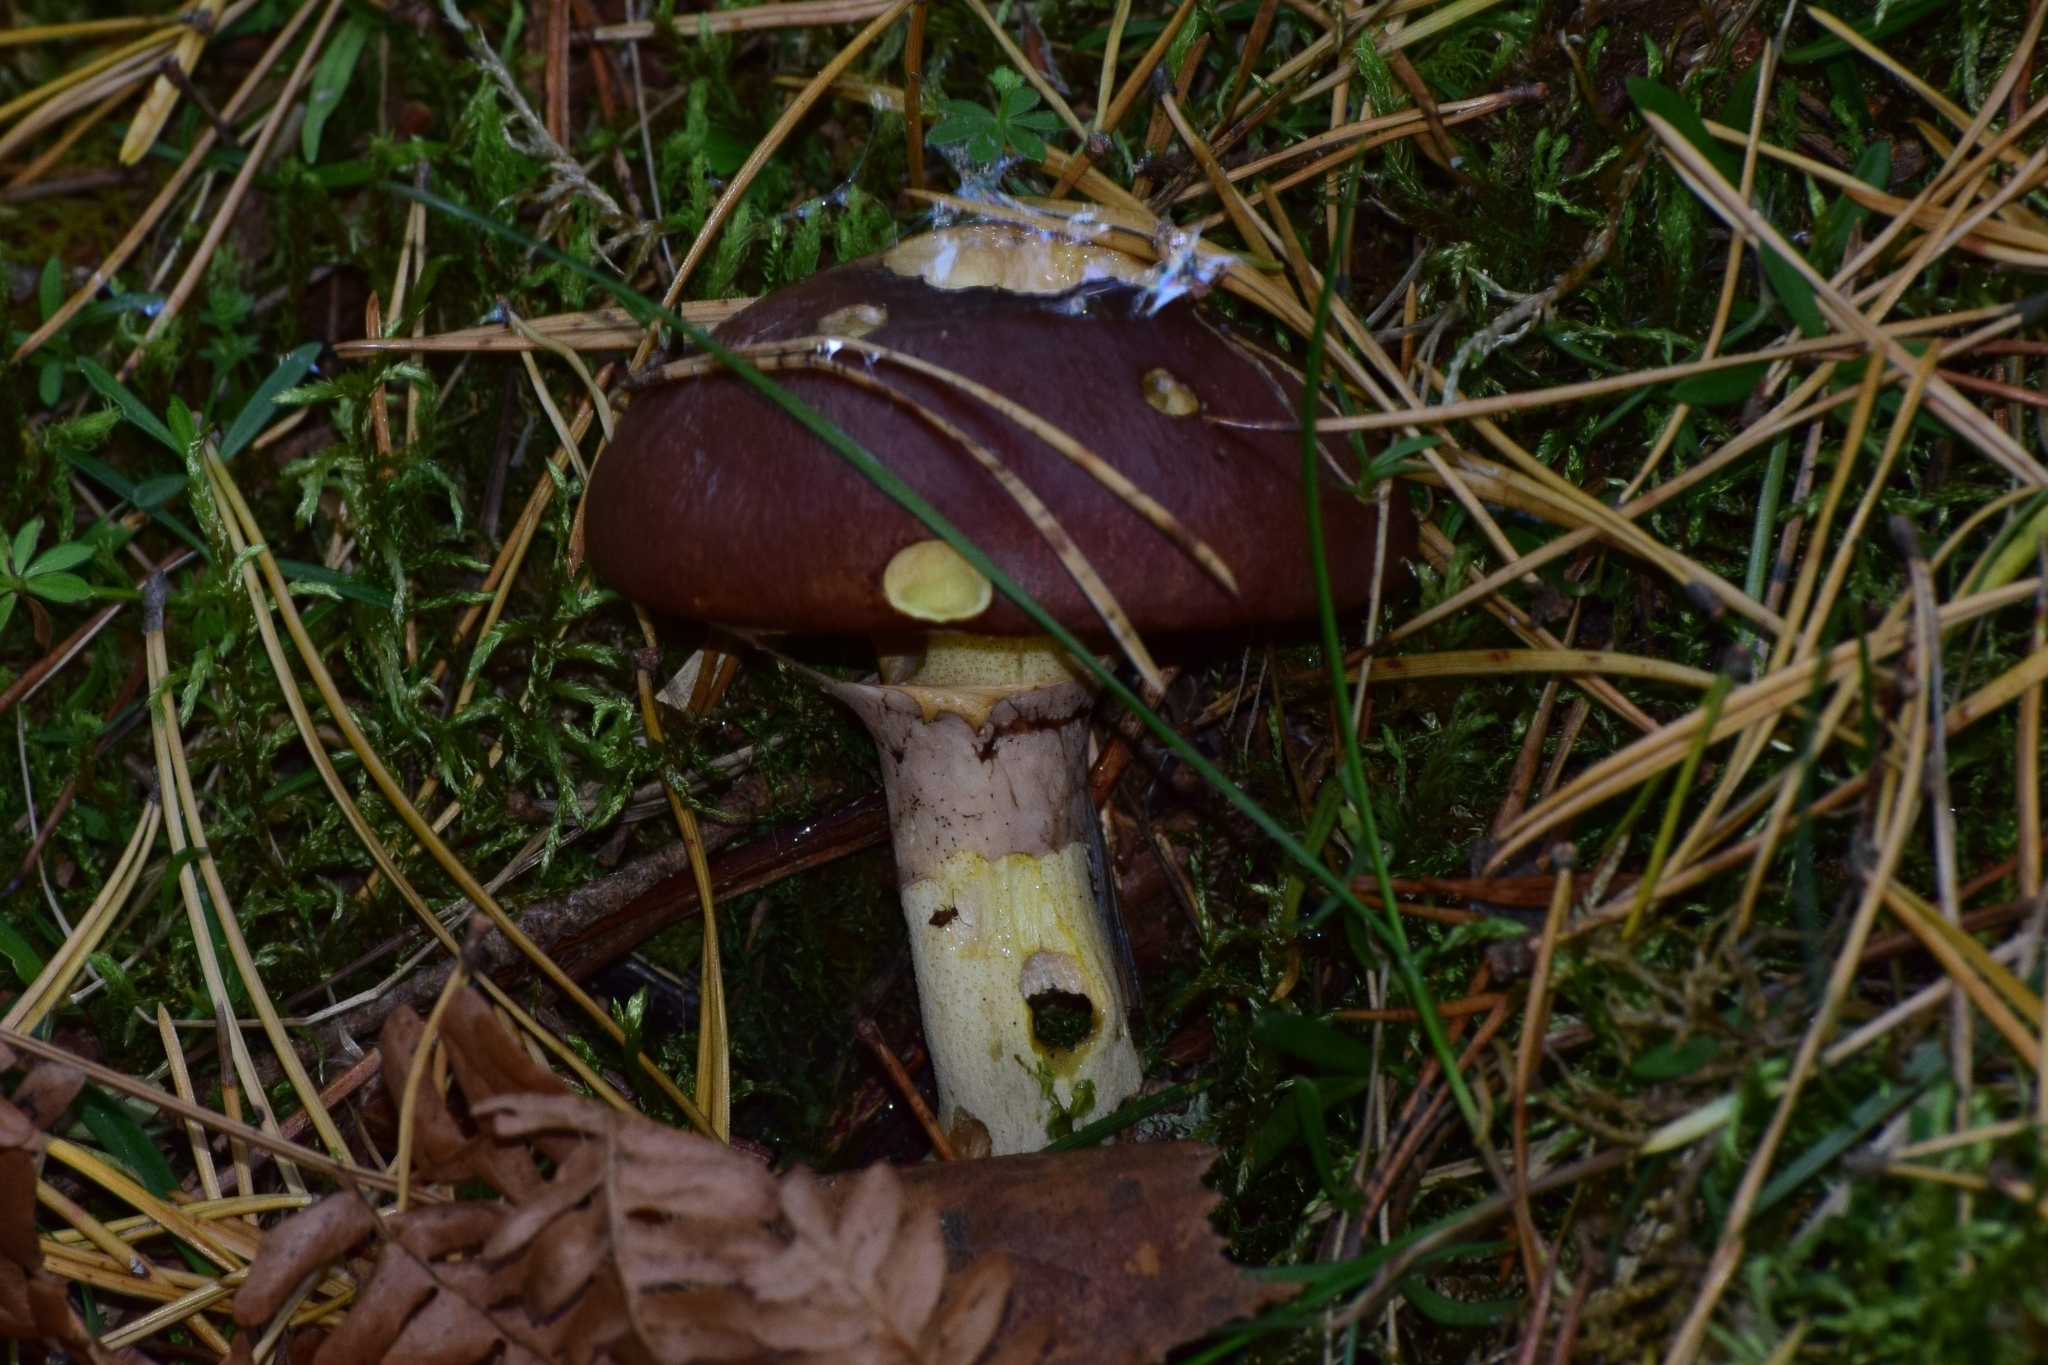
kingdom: Fungi
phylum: Basidiomycota
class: Agaricomycetes
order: Boletales
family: Suillaceae
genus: Suillus
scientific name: Suillus luteus
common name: Slippery jack
